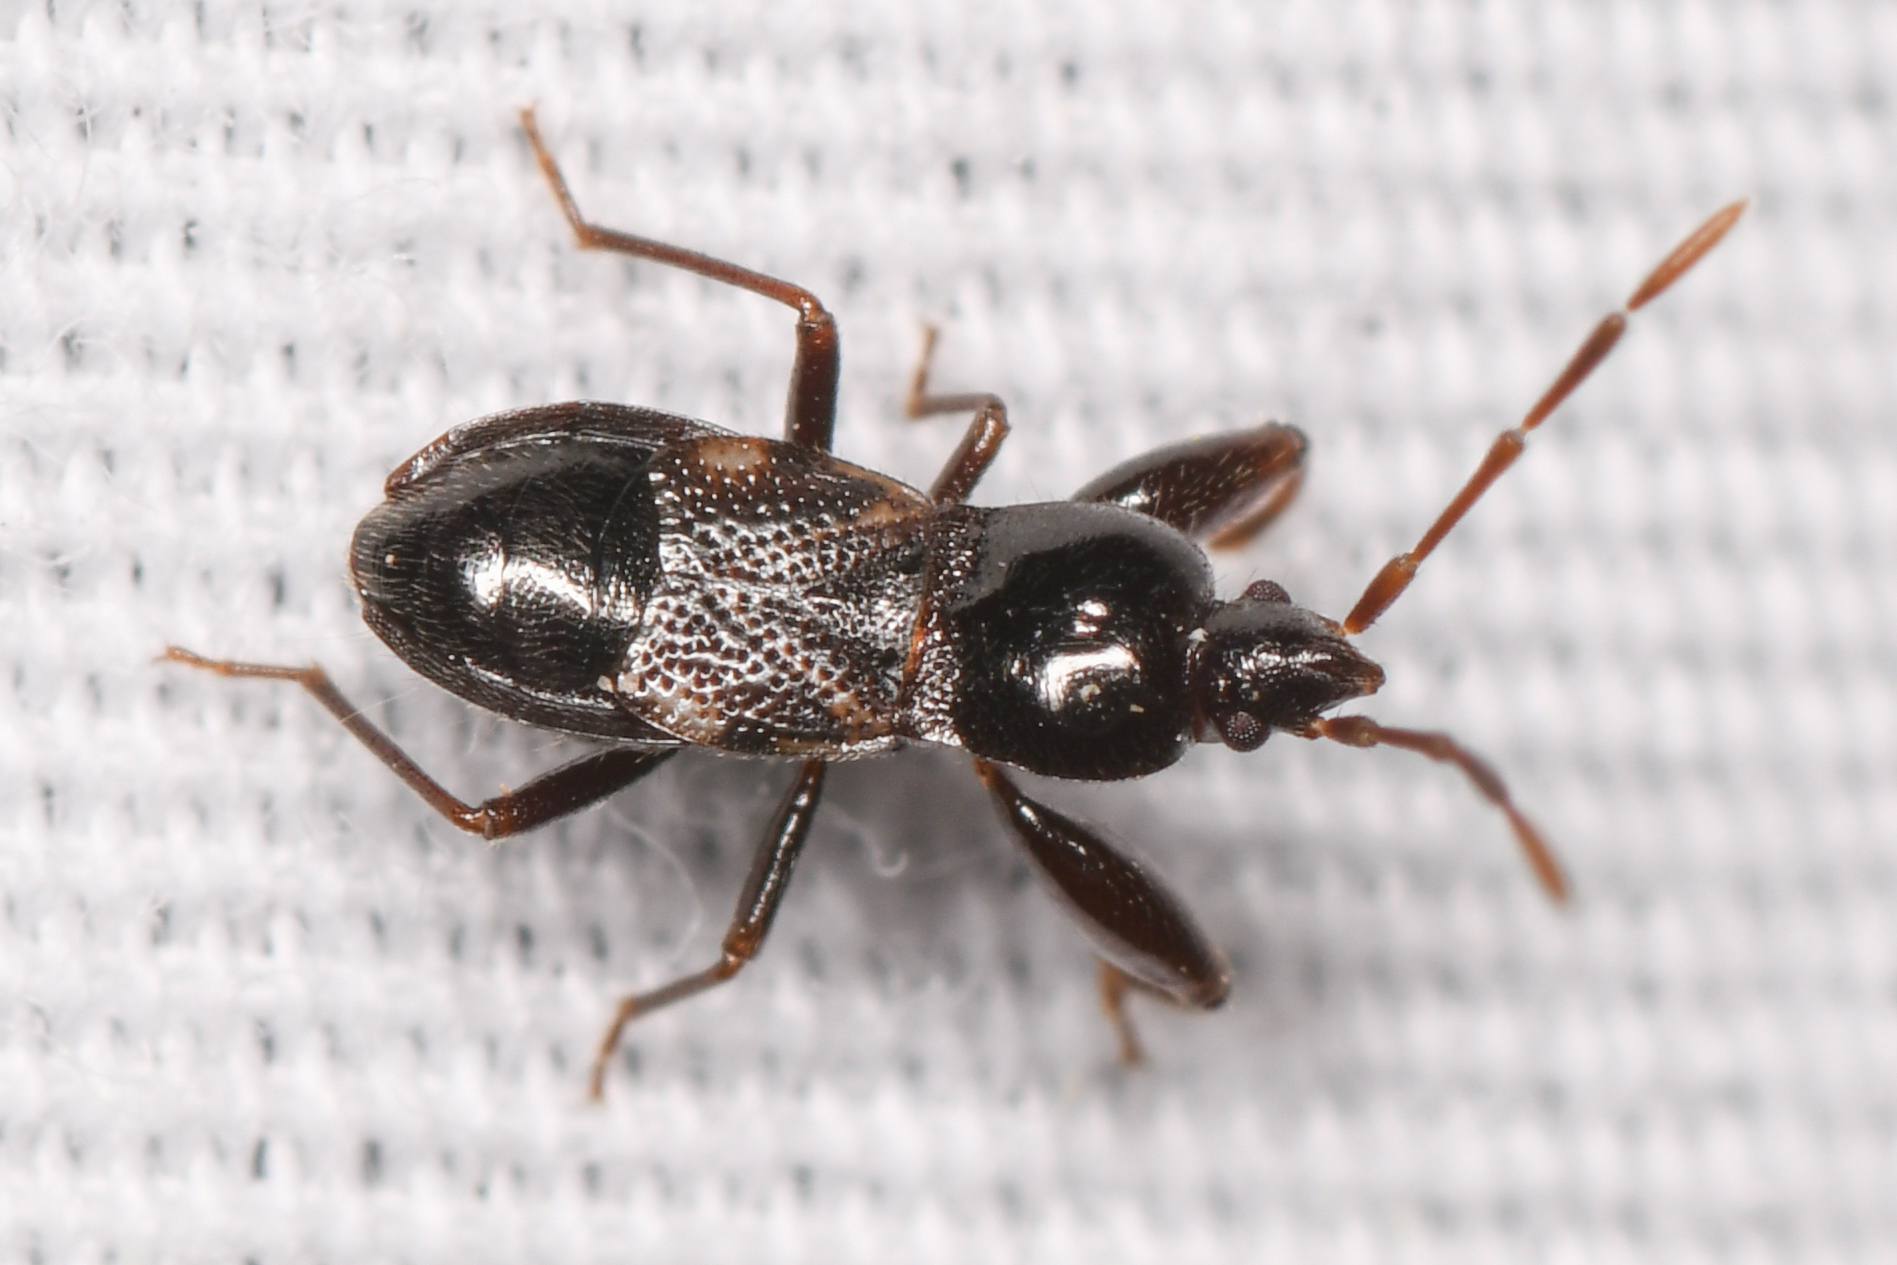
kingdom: Animalia
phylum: Arthropoda
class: Insecta
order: Hemiptera
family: Rhyparochromidae
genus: Thylochromus
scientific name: Thylochromus nitidulus
